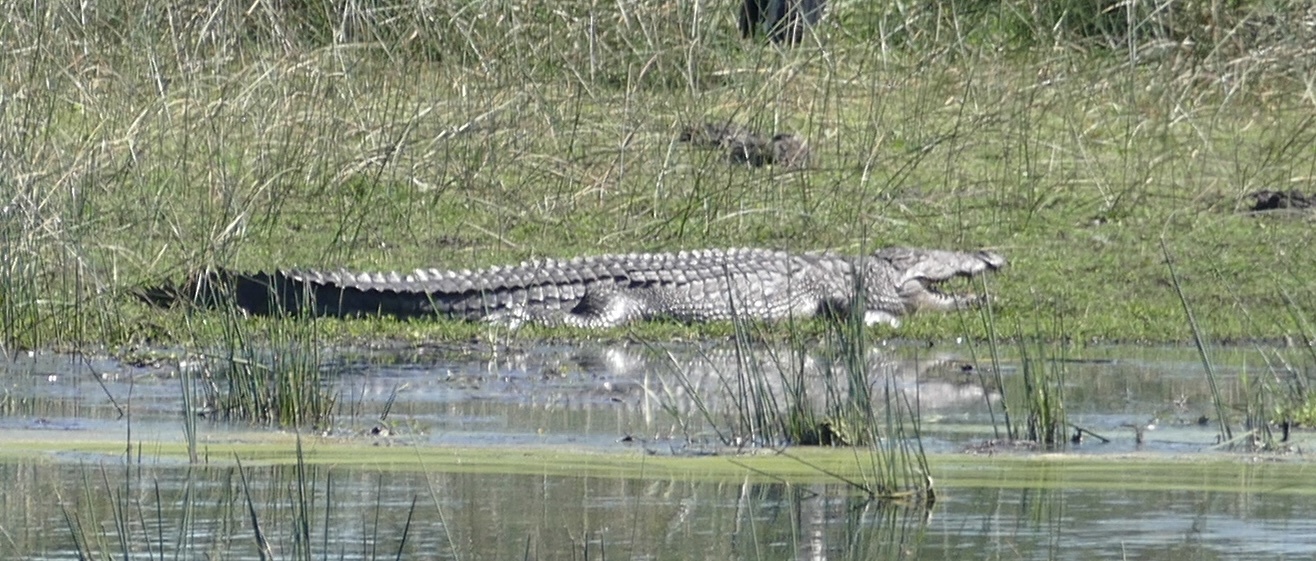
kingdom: Animalia
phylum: Chordata
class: Crocodylia
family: Crocodylidae
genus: Crocodylus
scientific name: Crocodylus niloticus
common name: Nile crocodile
